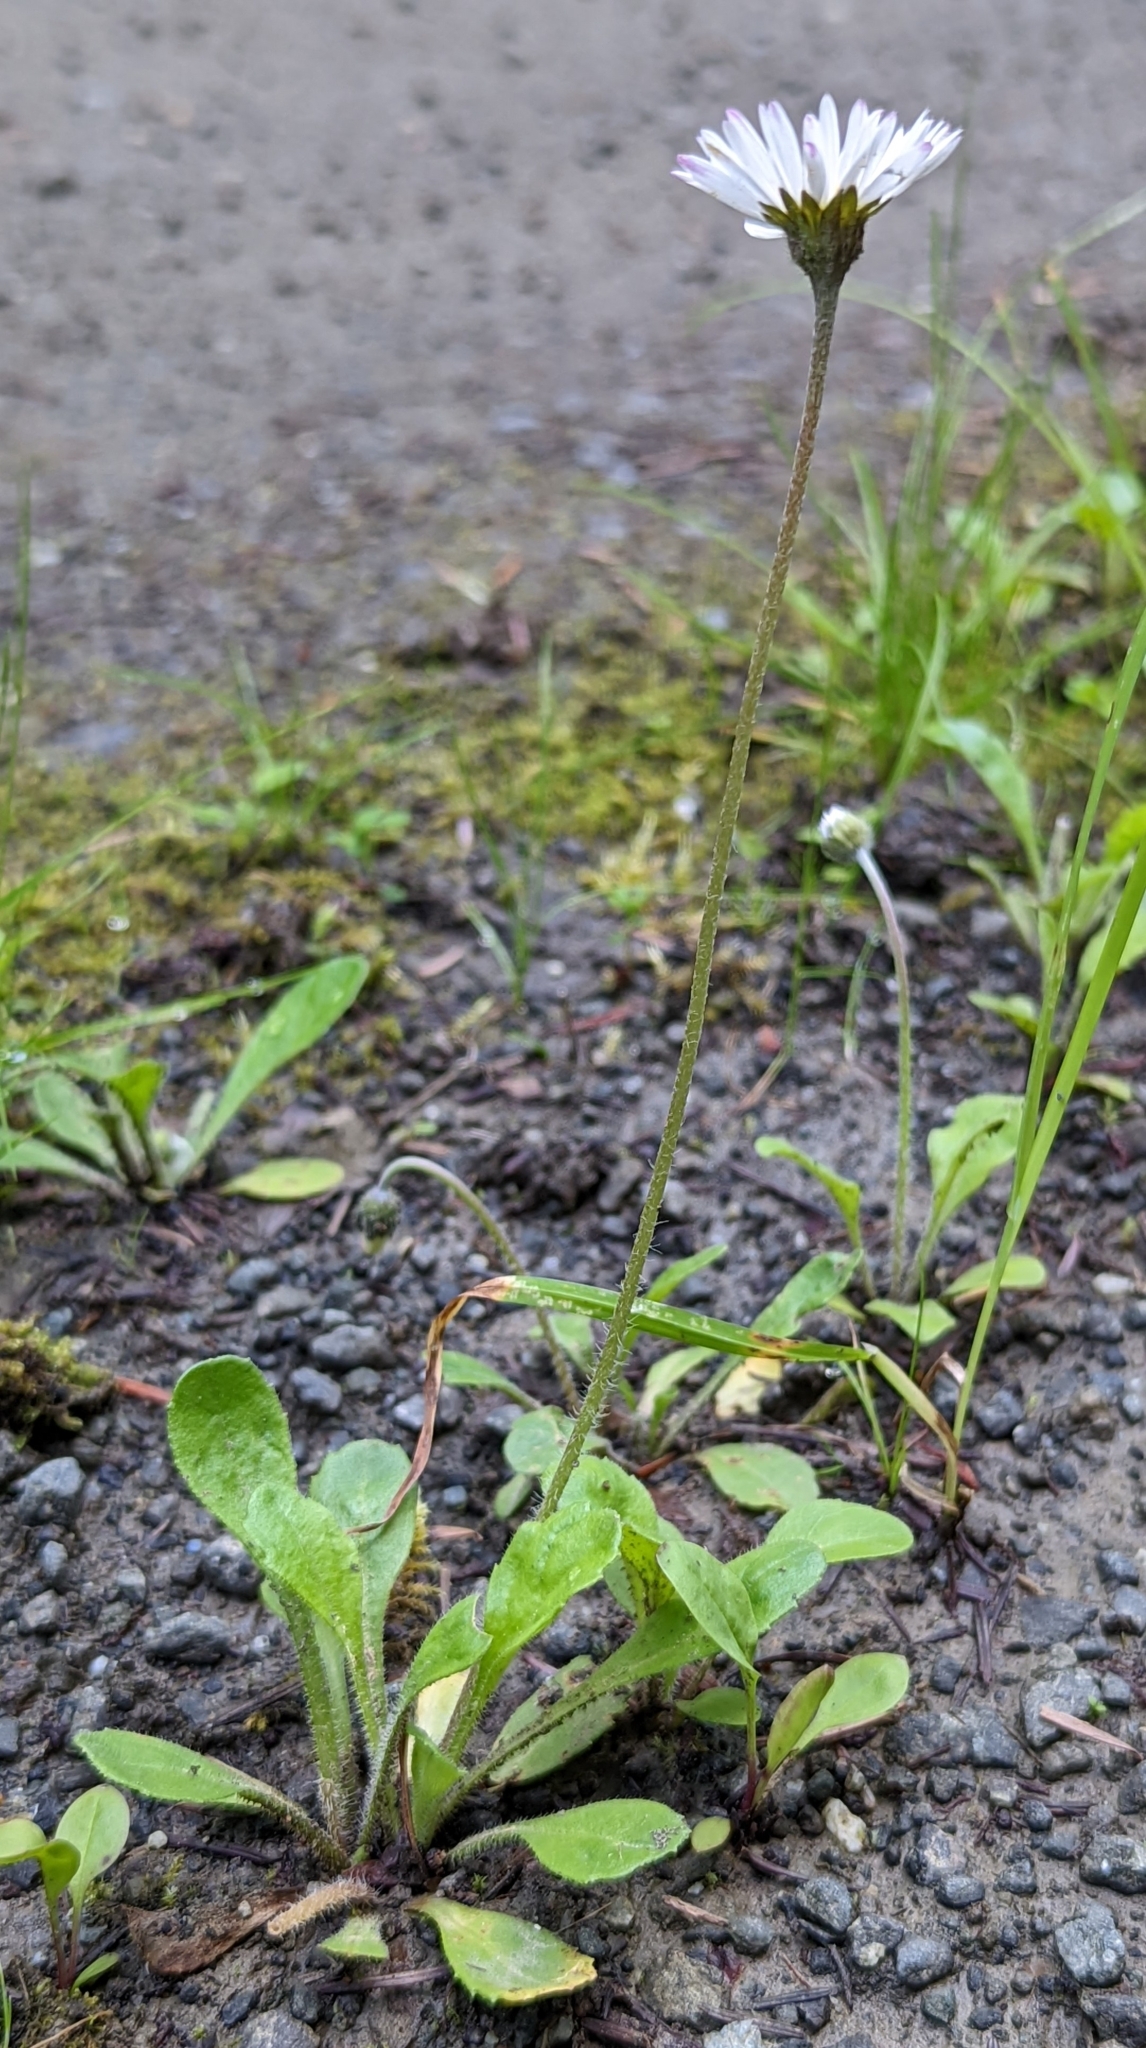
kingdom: Plantae
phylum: Tracheophyta
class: Magnoliopsida
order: Asterales
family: Asteraceae
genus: Bellis
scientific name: Bellis perennis
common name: Lawndaisy
